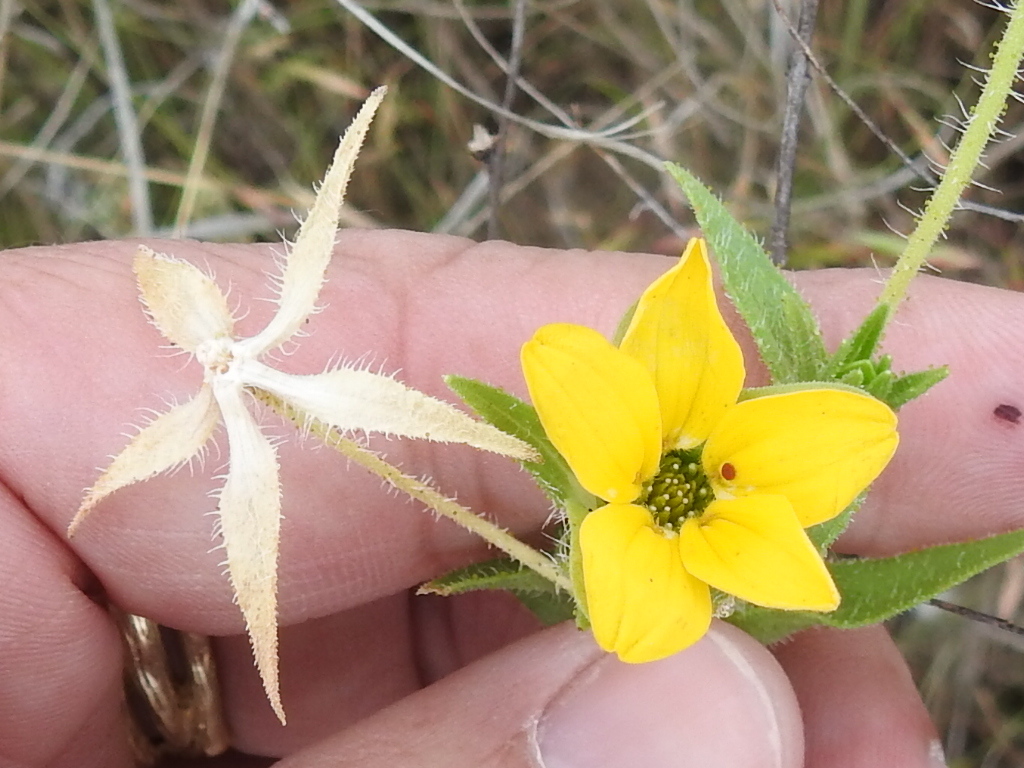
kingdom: Plantae
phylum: Tracheophyta
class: Magnoliopsida
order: Asterales
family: Asteraceae
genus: Lindheimera
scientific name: Lindheimera texana
